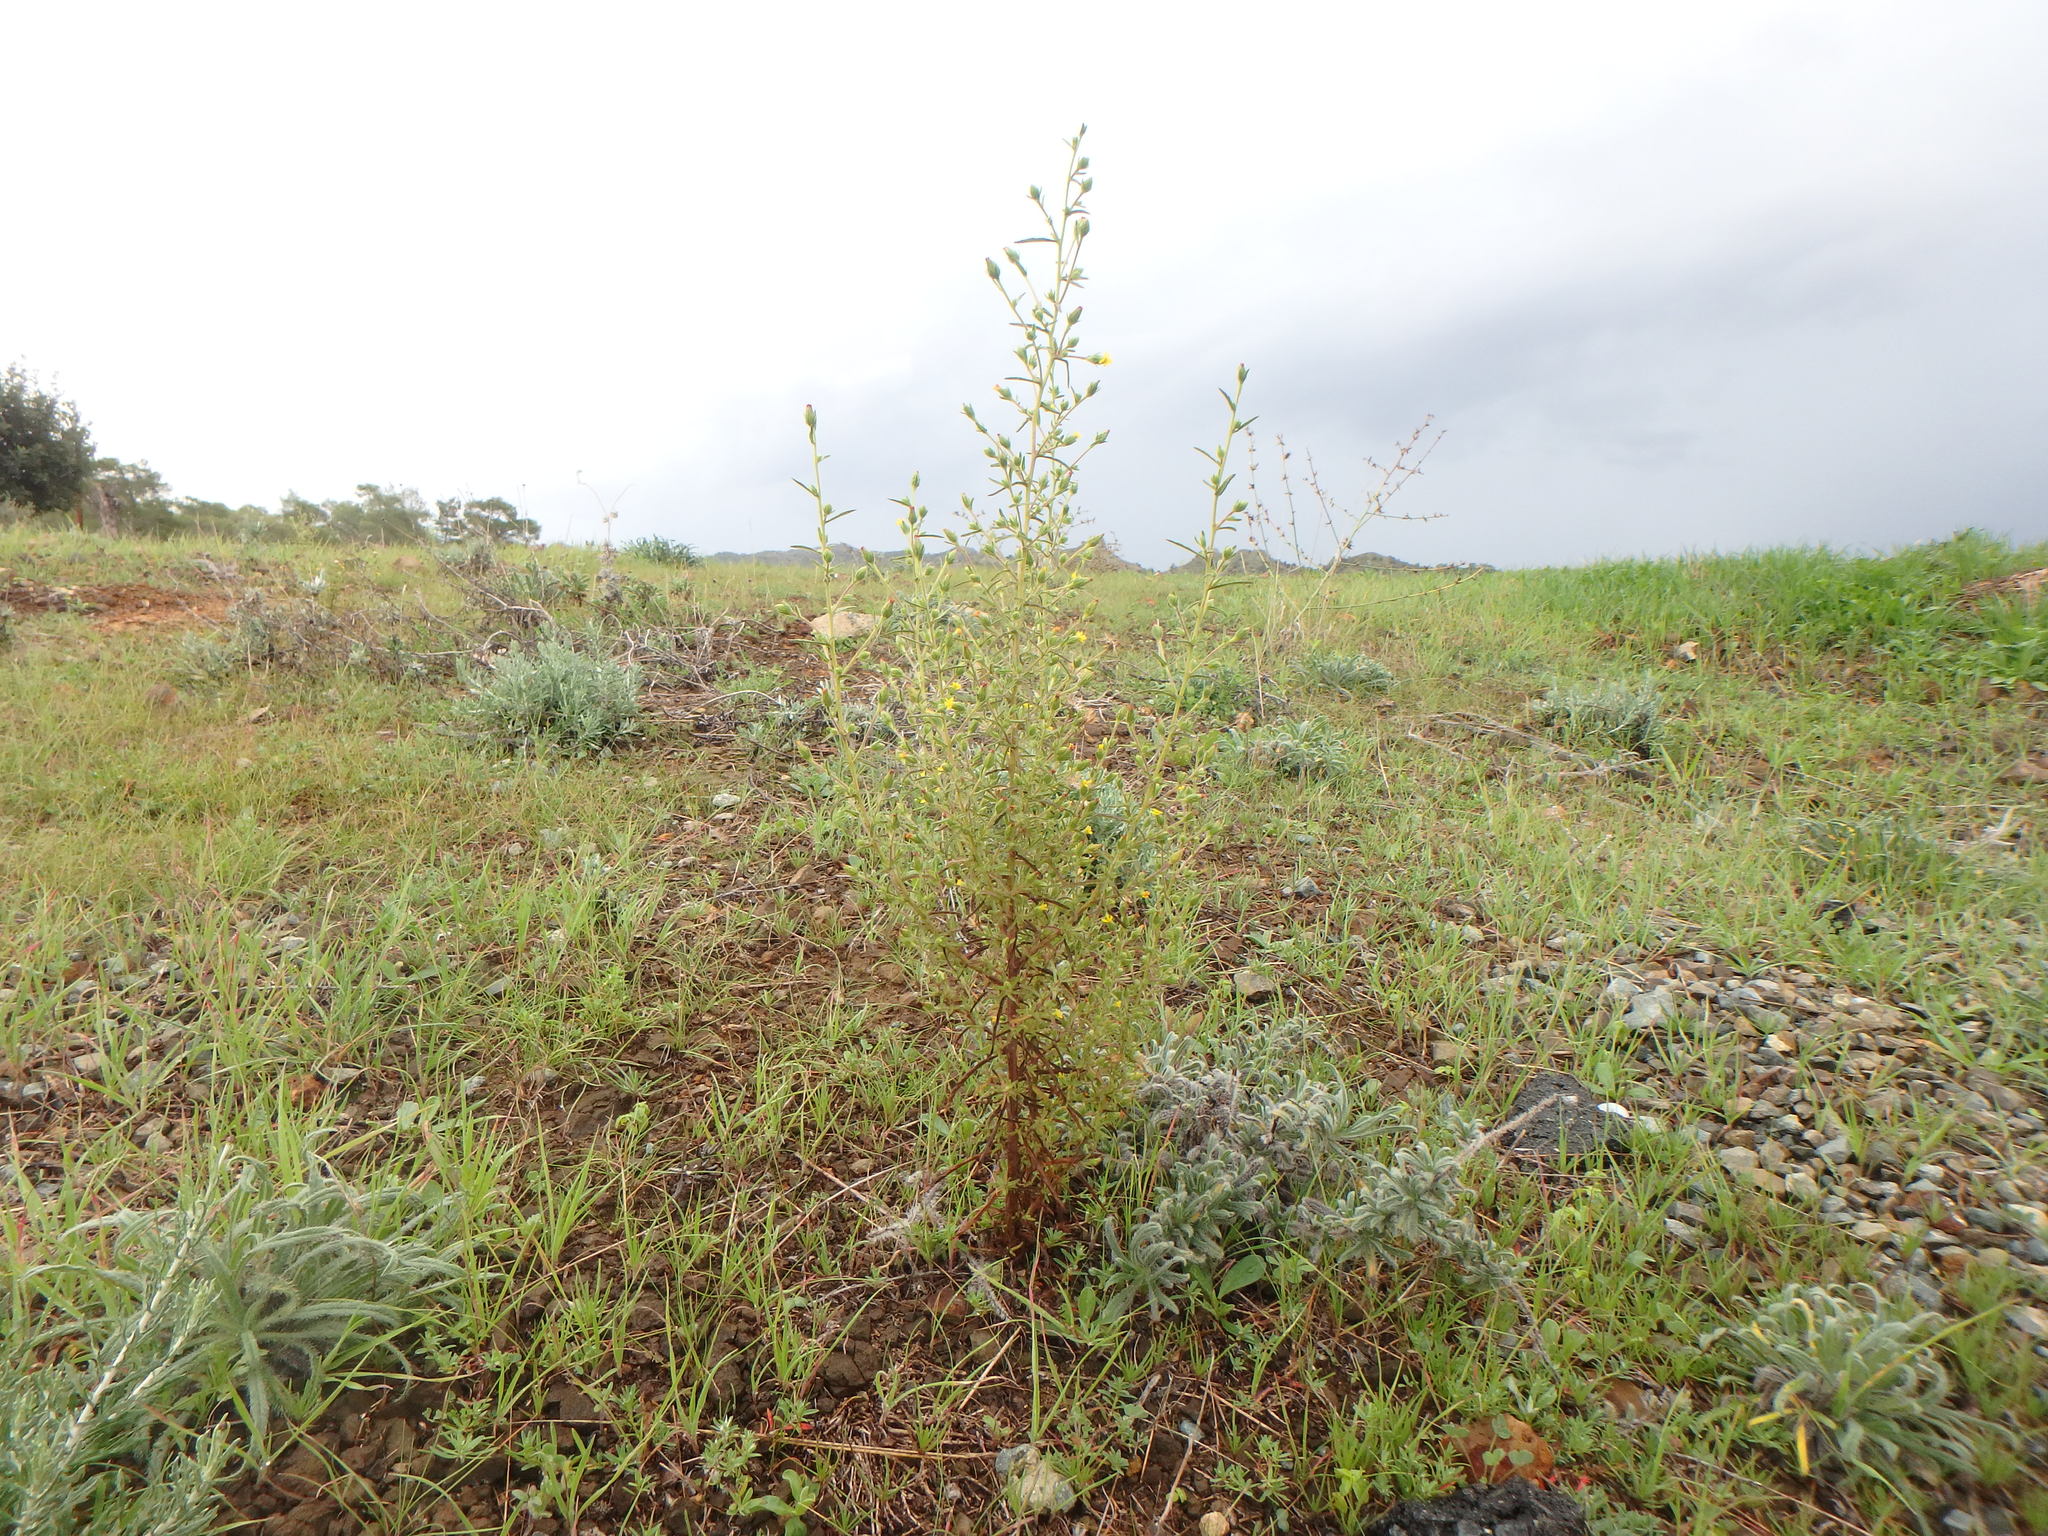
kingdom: Plantae
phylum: Tracheophyta
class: Magnoliopsida
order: Asterales
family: Asteraceae
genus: Dittrichia
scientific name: Dittrichia graveolens
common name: Stinking fleabane
